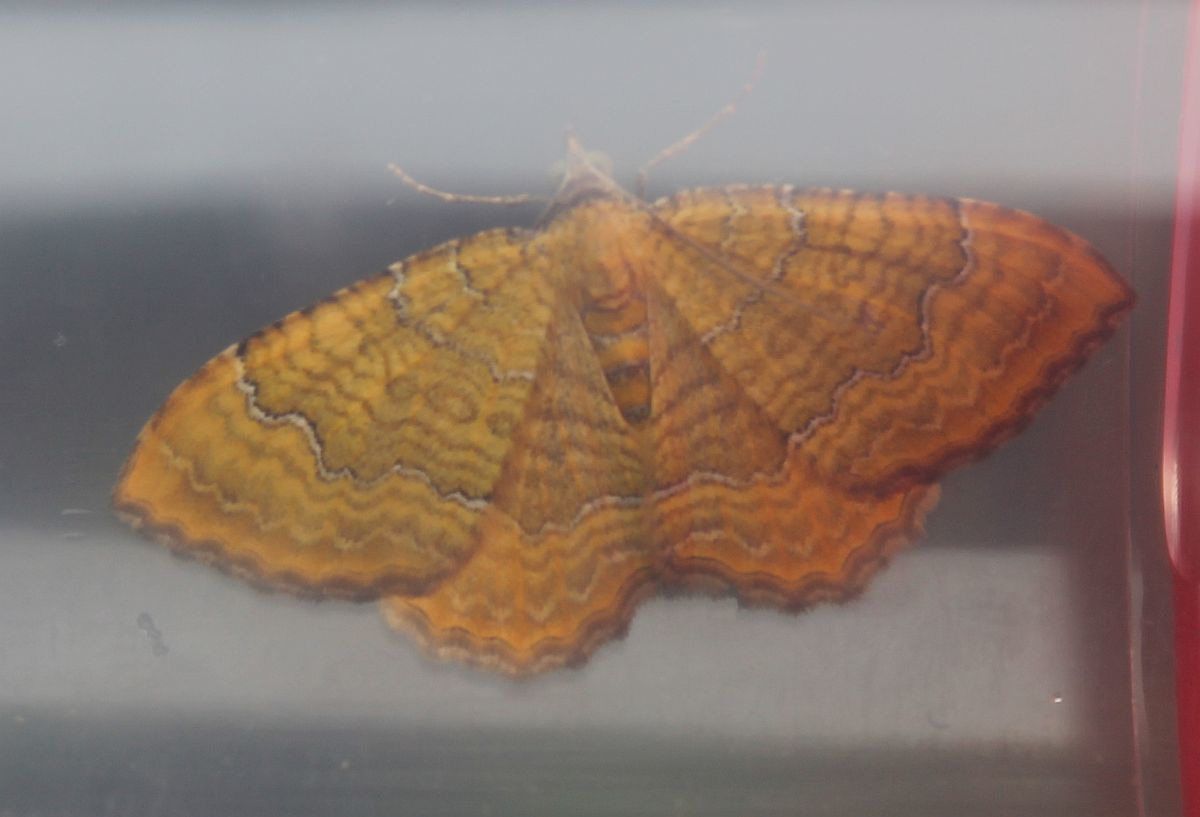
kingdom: Animalia
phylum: Arthropoda
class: Insecta
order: Lepidoptera
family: Geometridae
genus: Camptogramma
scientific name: Camptogramma bilineata
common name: Yellow shell
